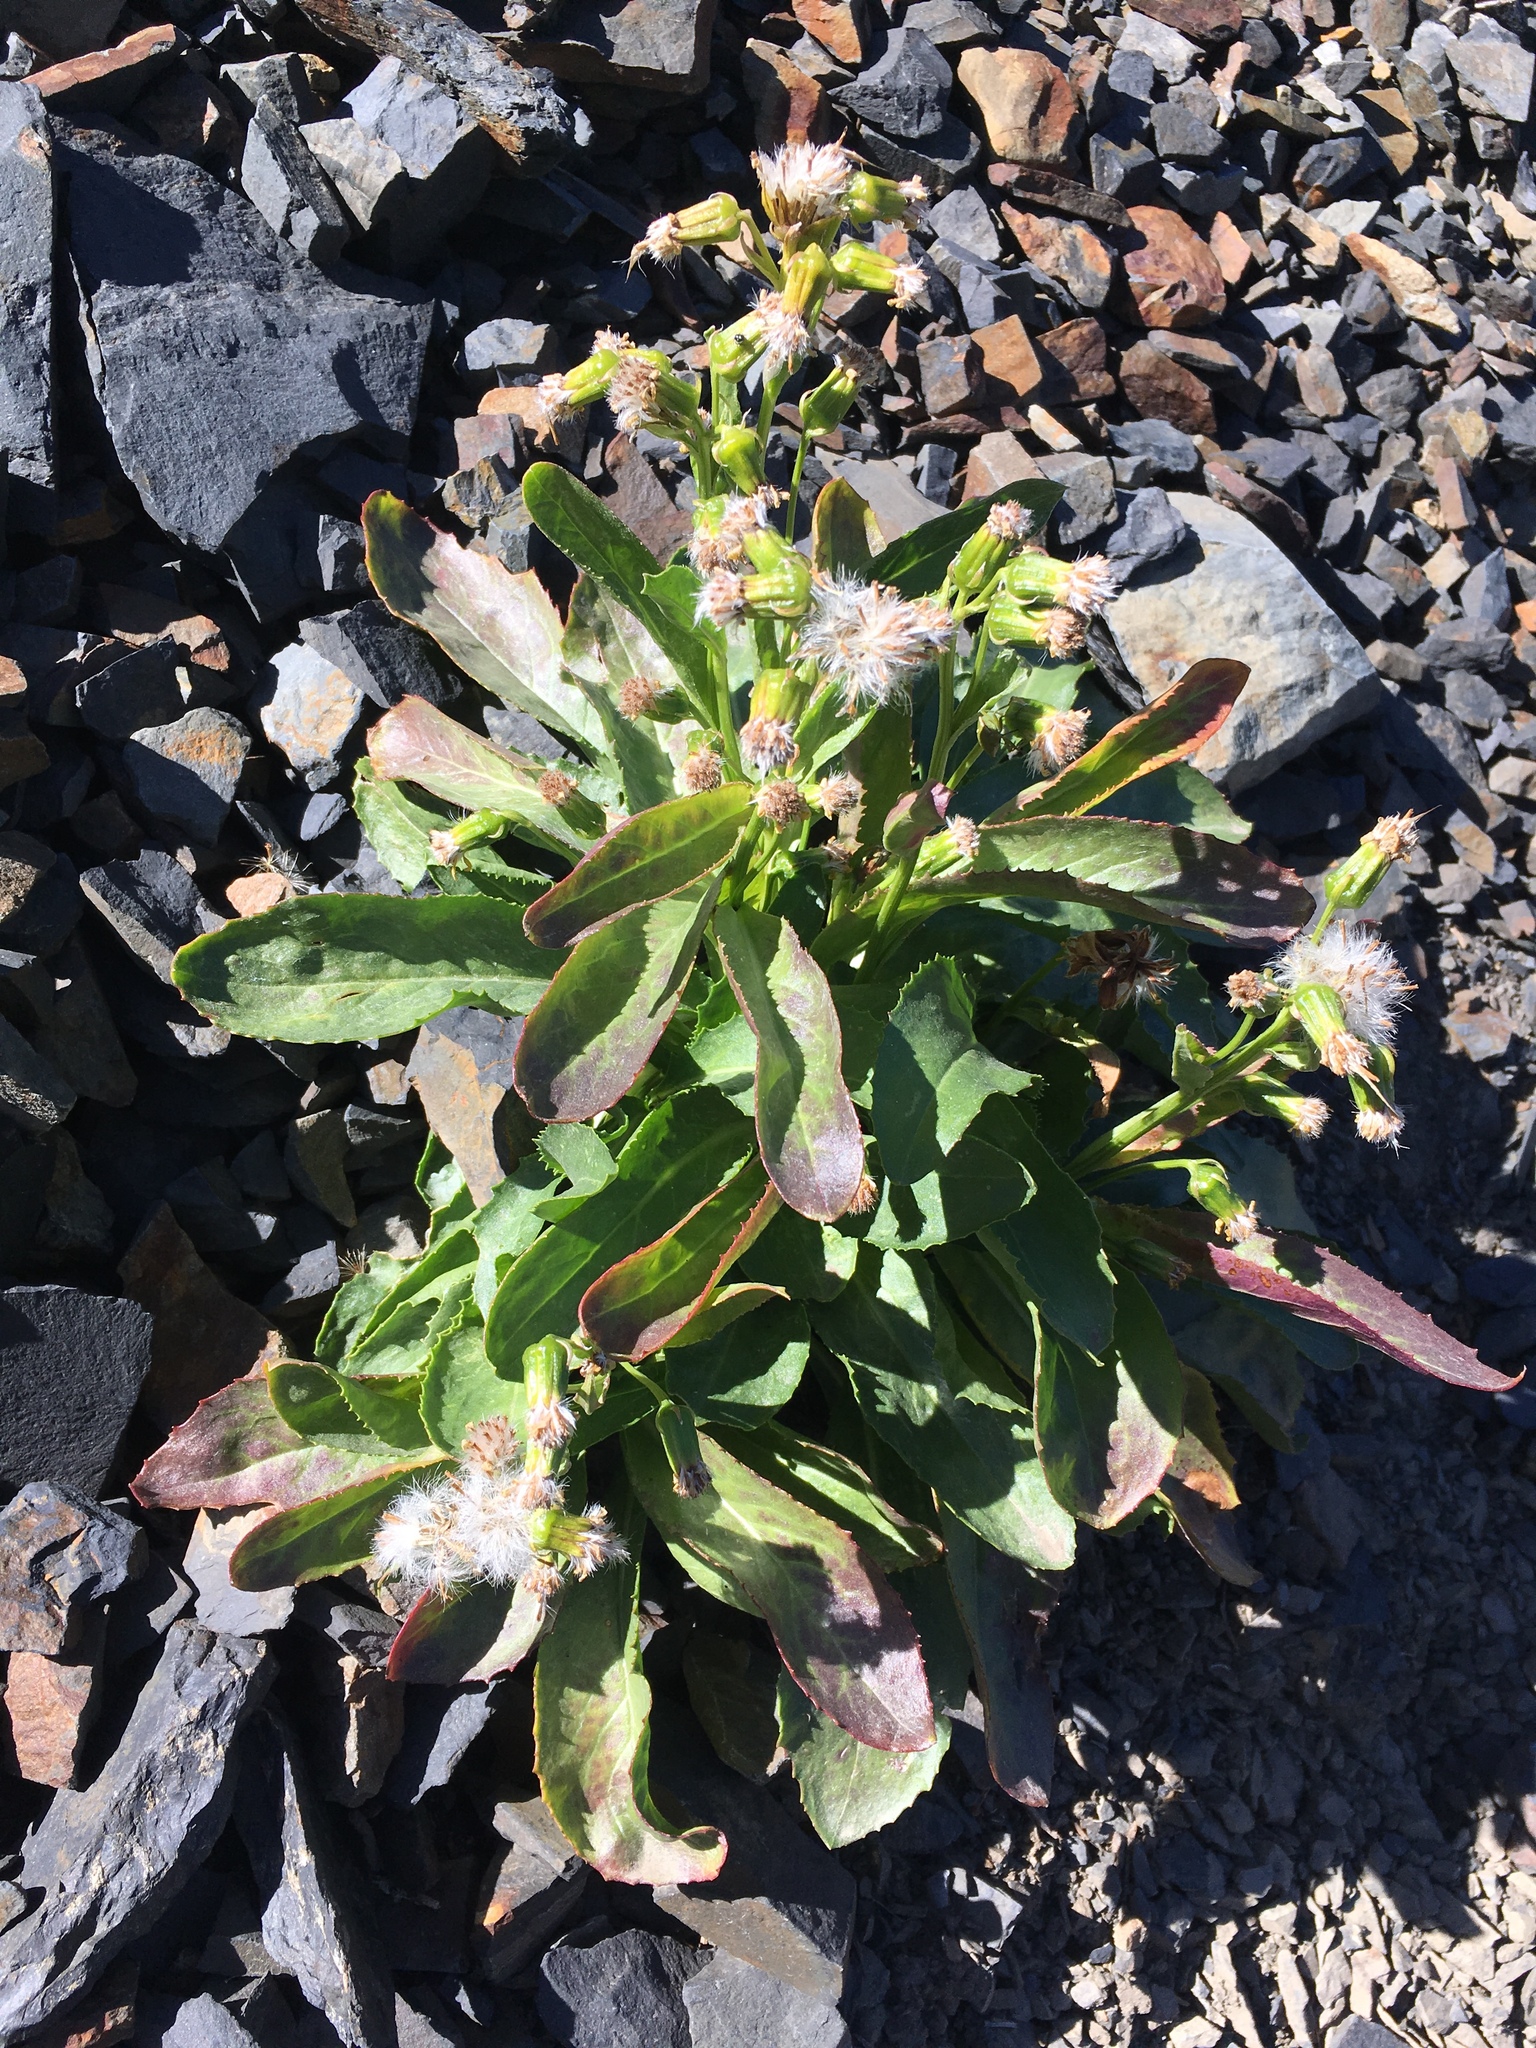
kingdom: Plantae
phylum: Tracheophyta
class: Magnoliopsida
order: Asterales
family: Asteraceae
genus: Senecio
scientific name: Senecio elmeri
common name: Elmer's butterweed
